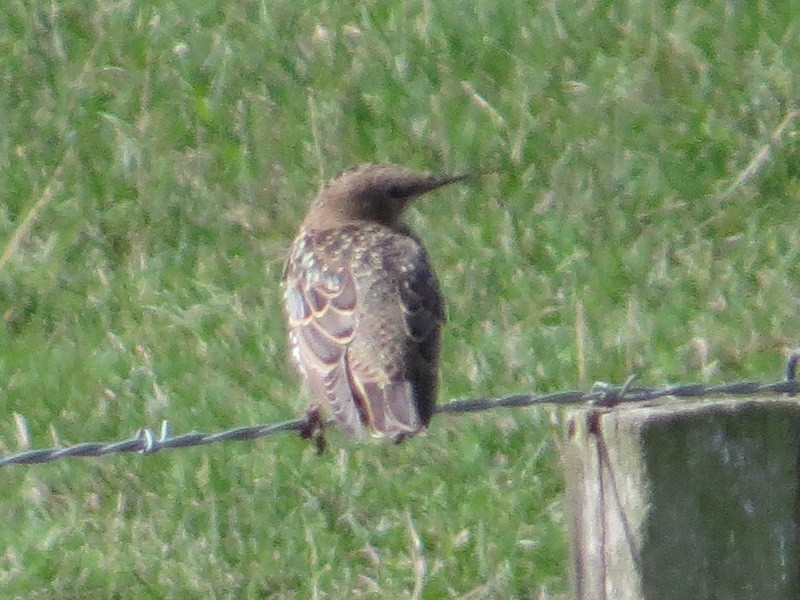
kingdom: Animalia
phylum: Chordata
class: Aves
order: Passeriformes
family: Sturnidae
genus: Sturnus
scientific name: Sturnus vulgaris
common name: Common starling
